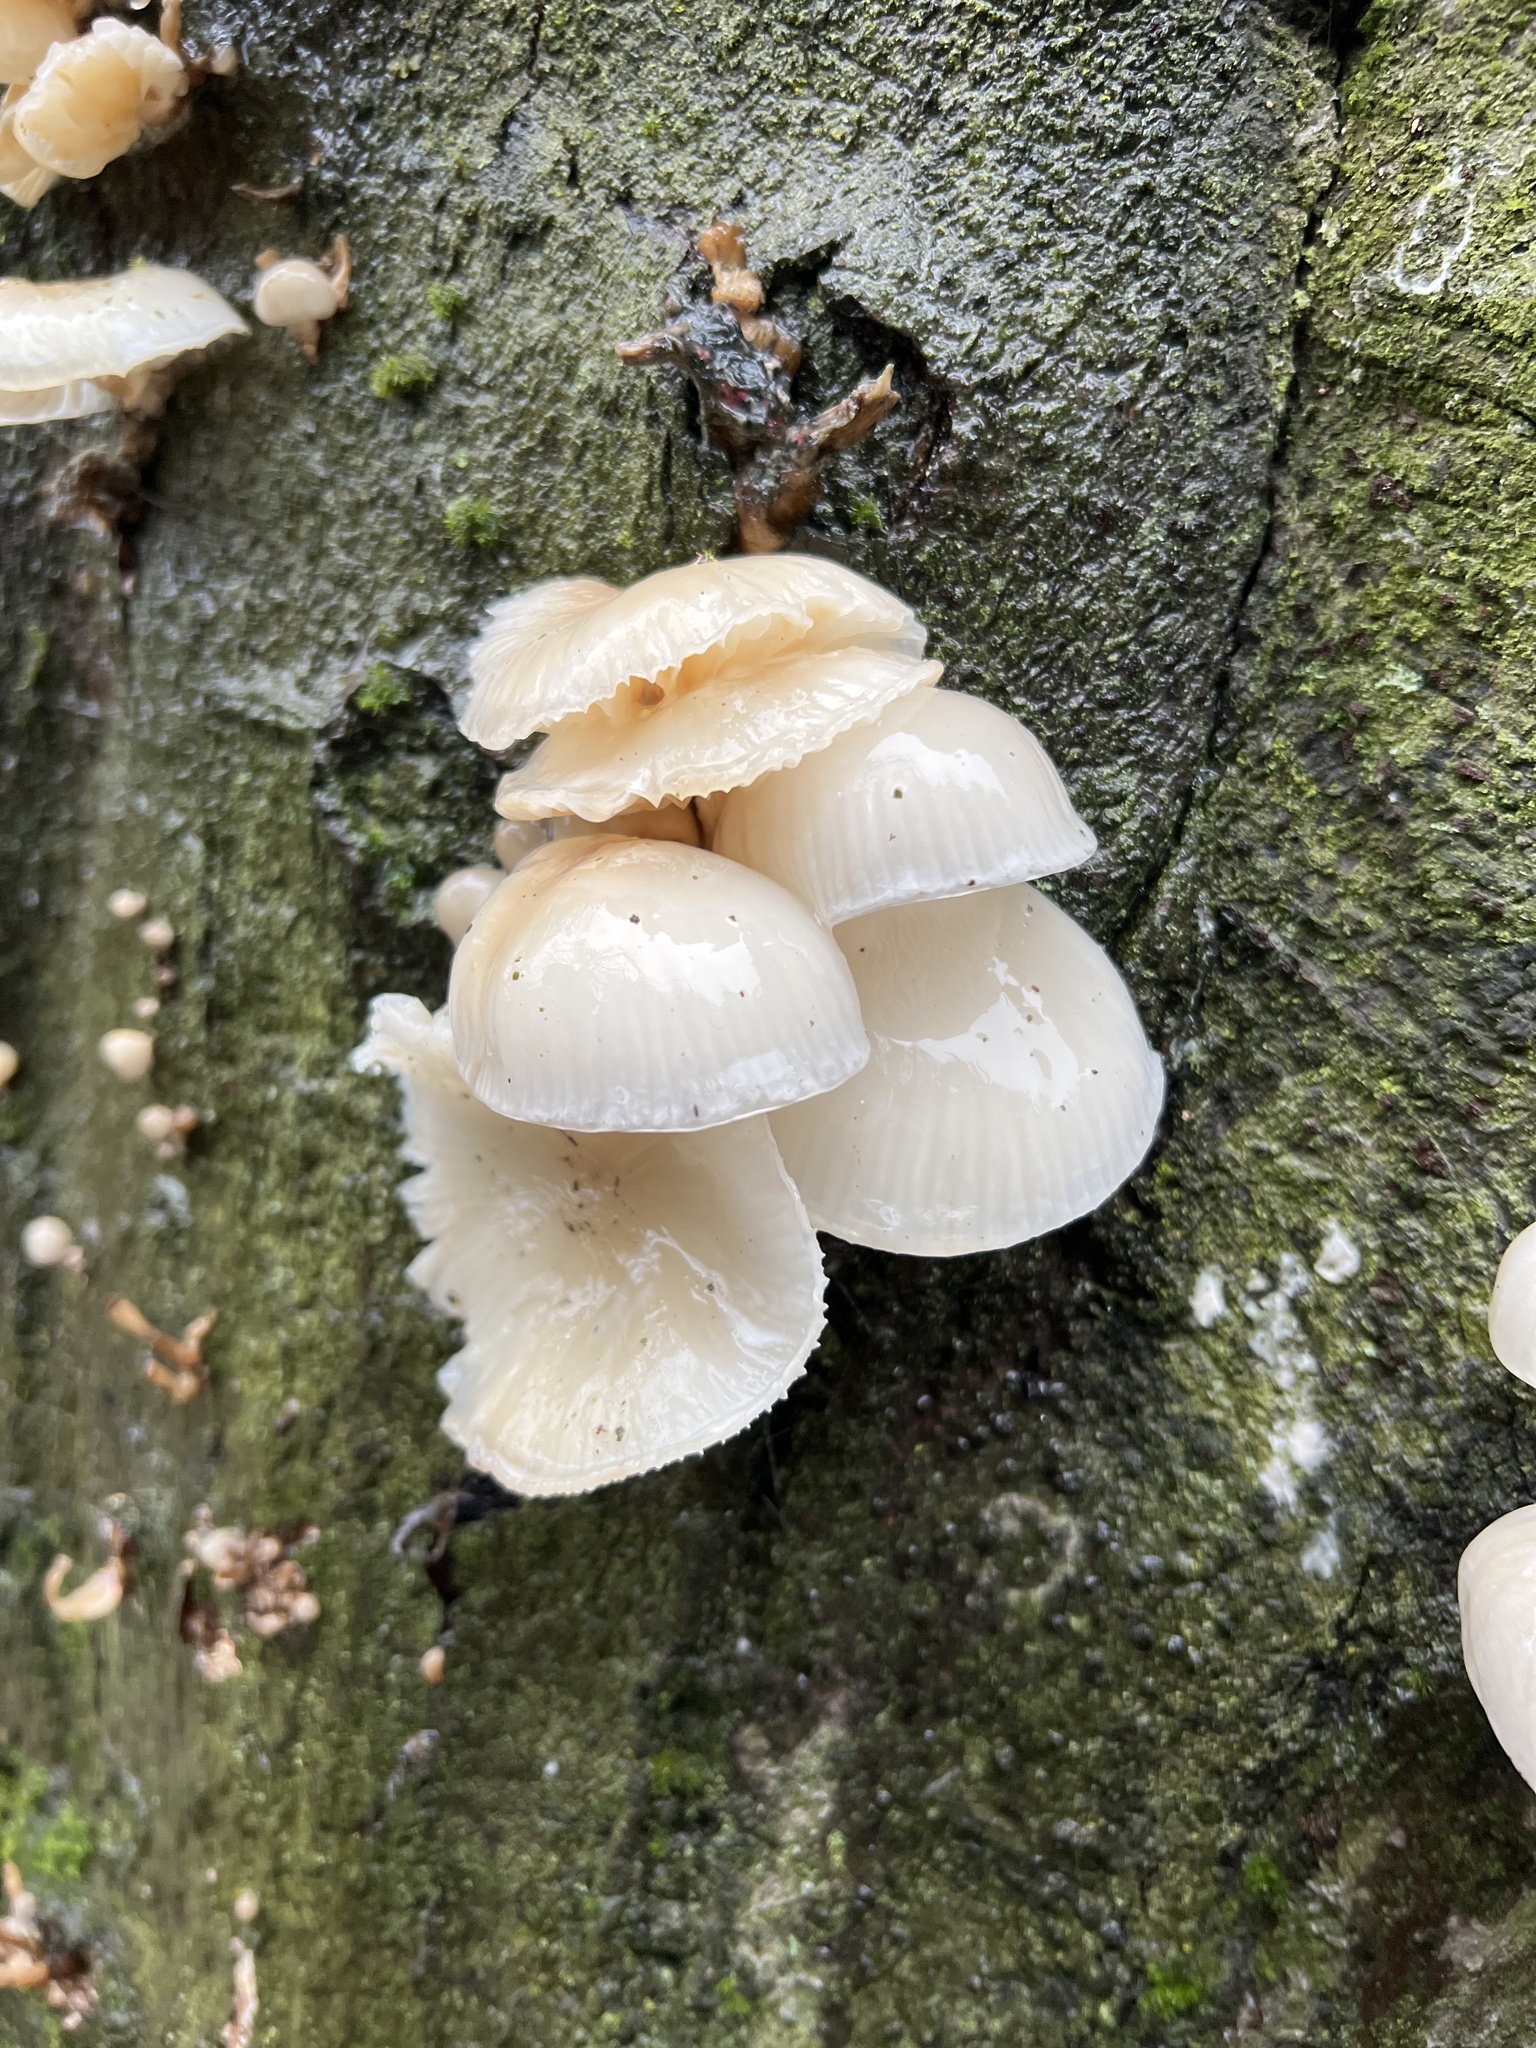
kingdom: Fungi
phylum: Basidiomycota
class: Agaricomycetes
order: Agaricales
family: Physalacriaceae
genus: Mucidula
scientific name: Mucidula mucida
